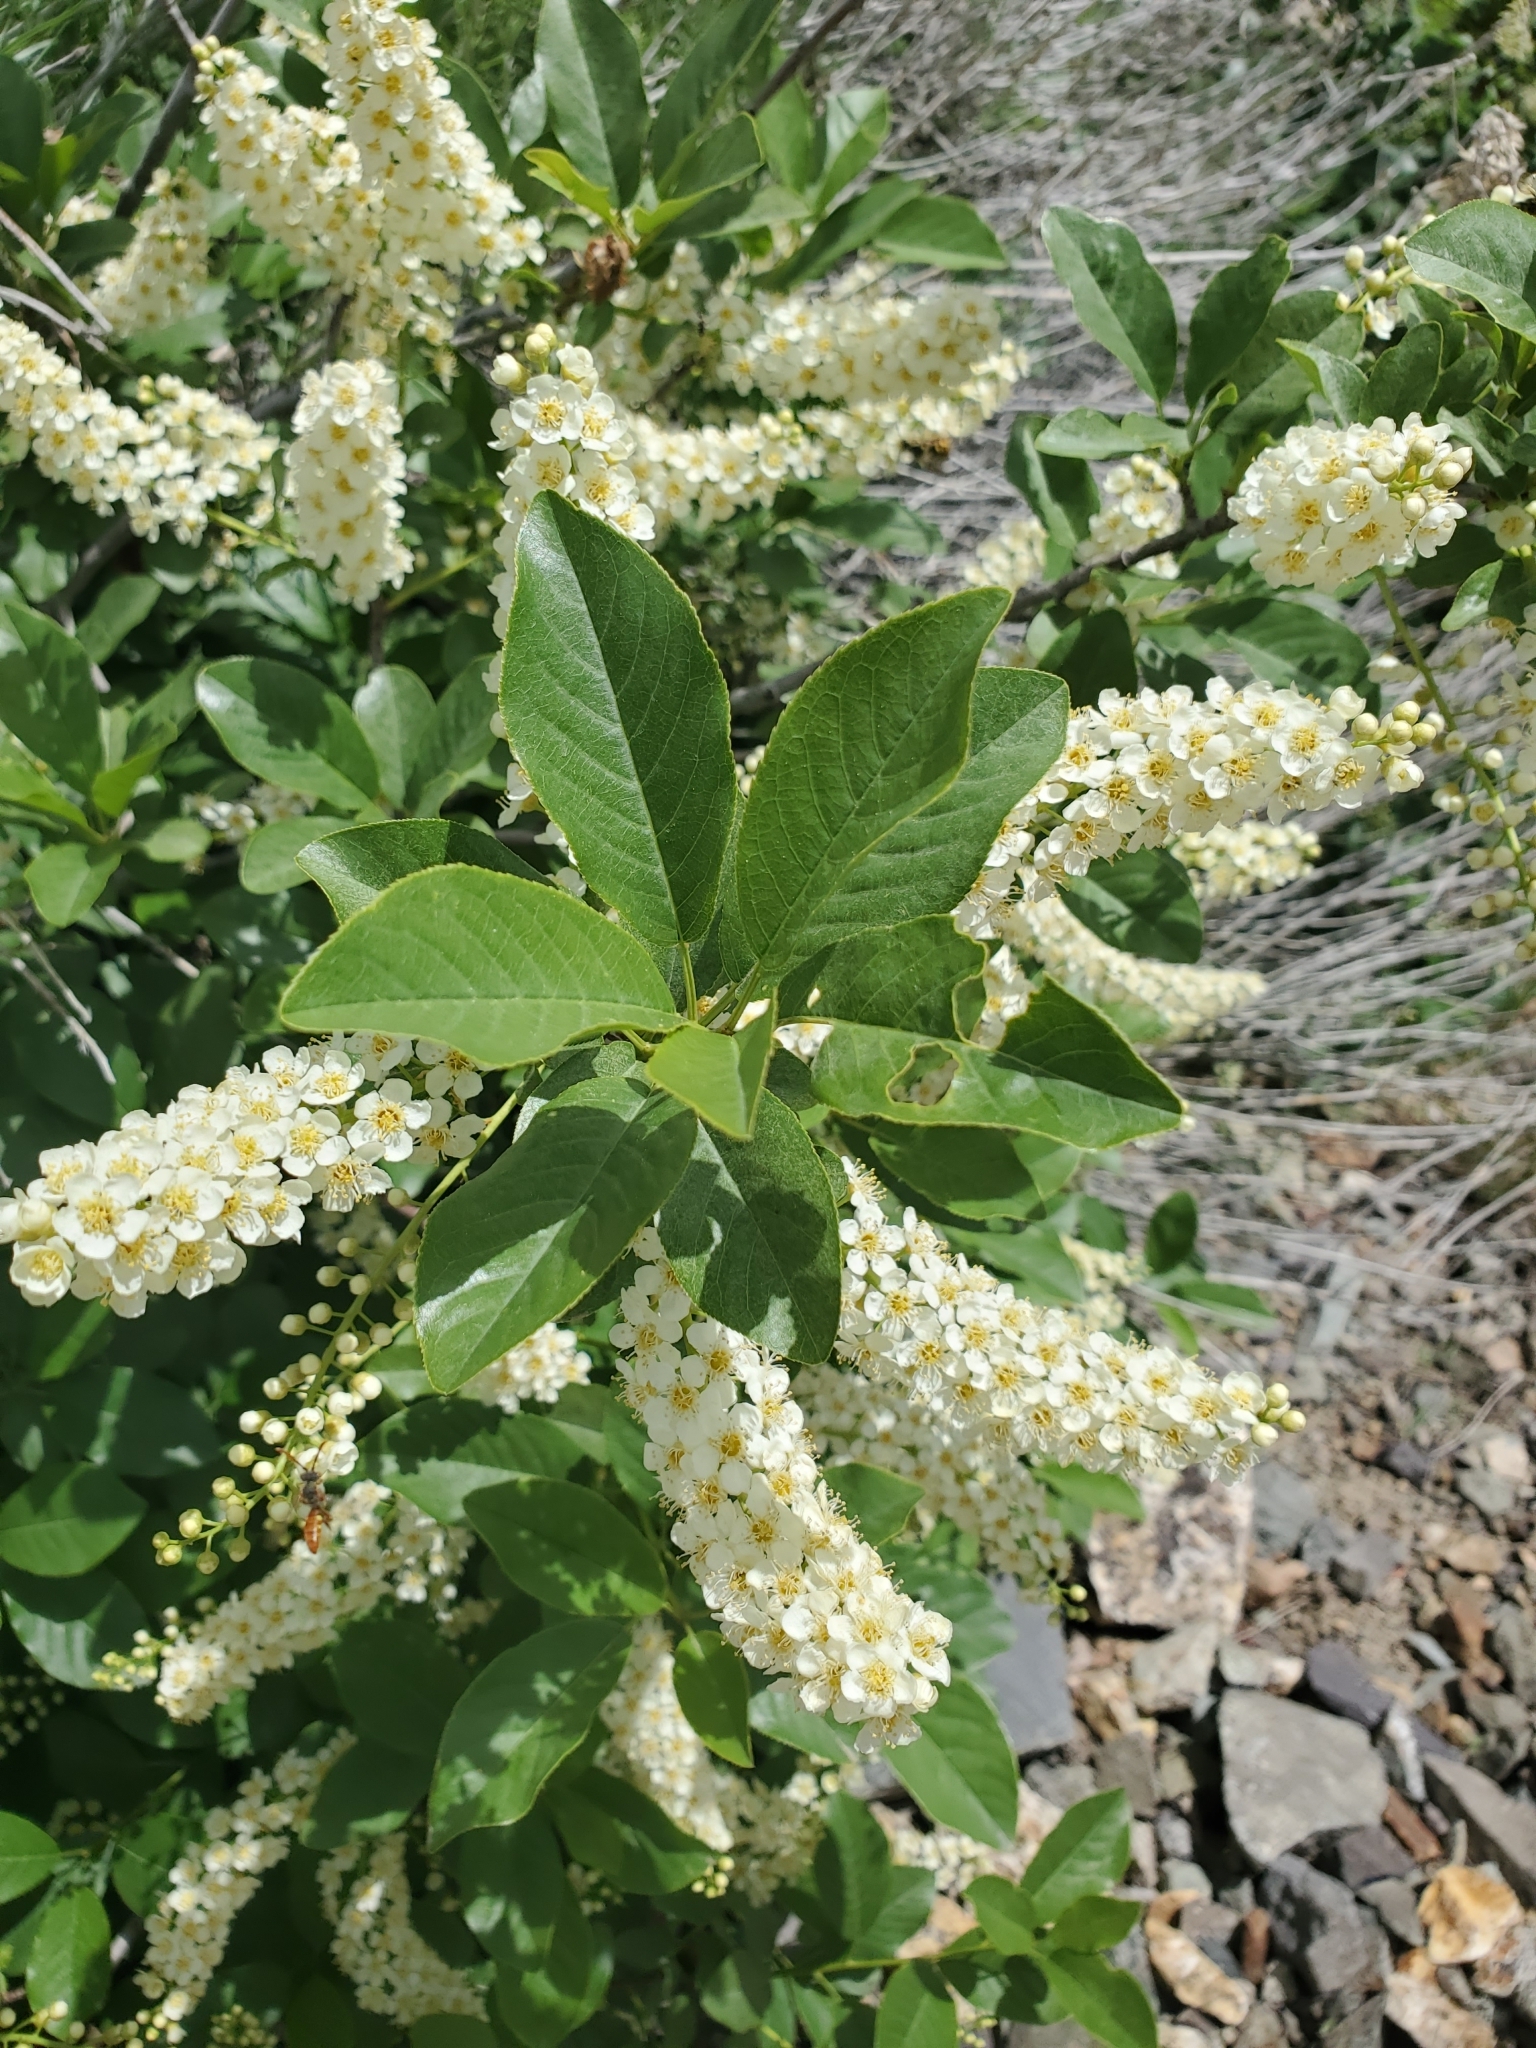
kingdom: Plantae
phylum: Tracheophyta
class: Magnoliopsida
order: Rosales
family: Rosaceae
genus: Prunus
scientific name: Prunus virginiana
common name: Chokecherry
